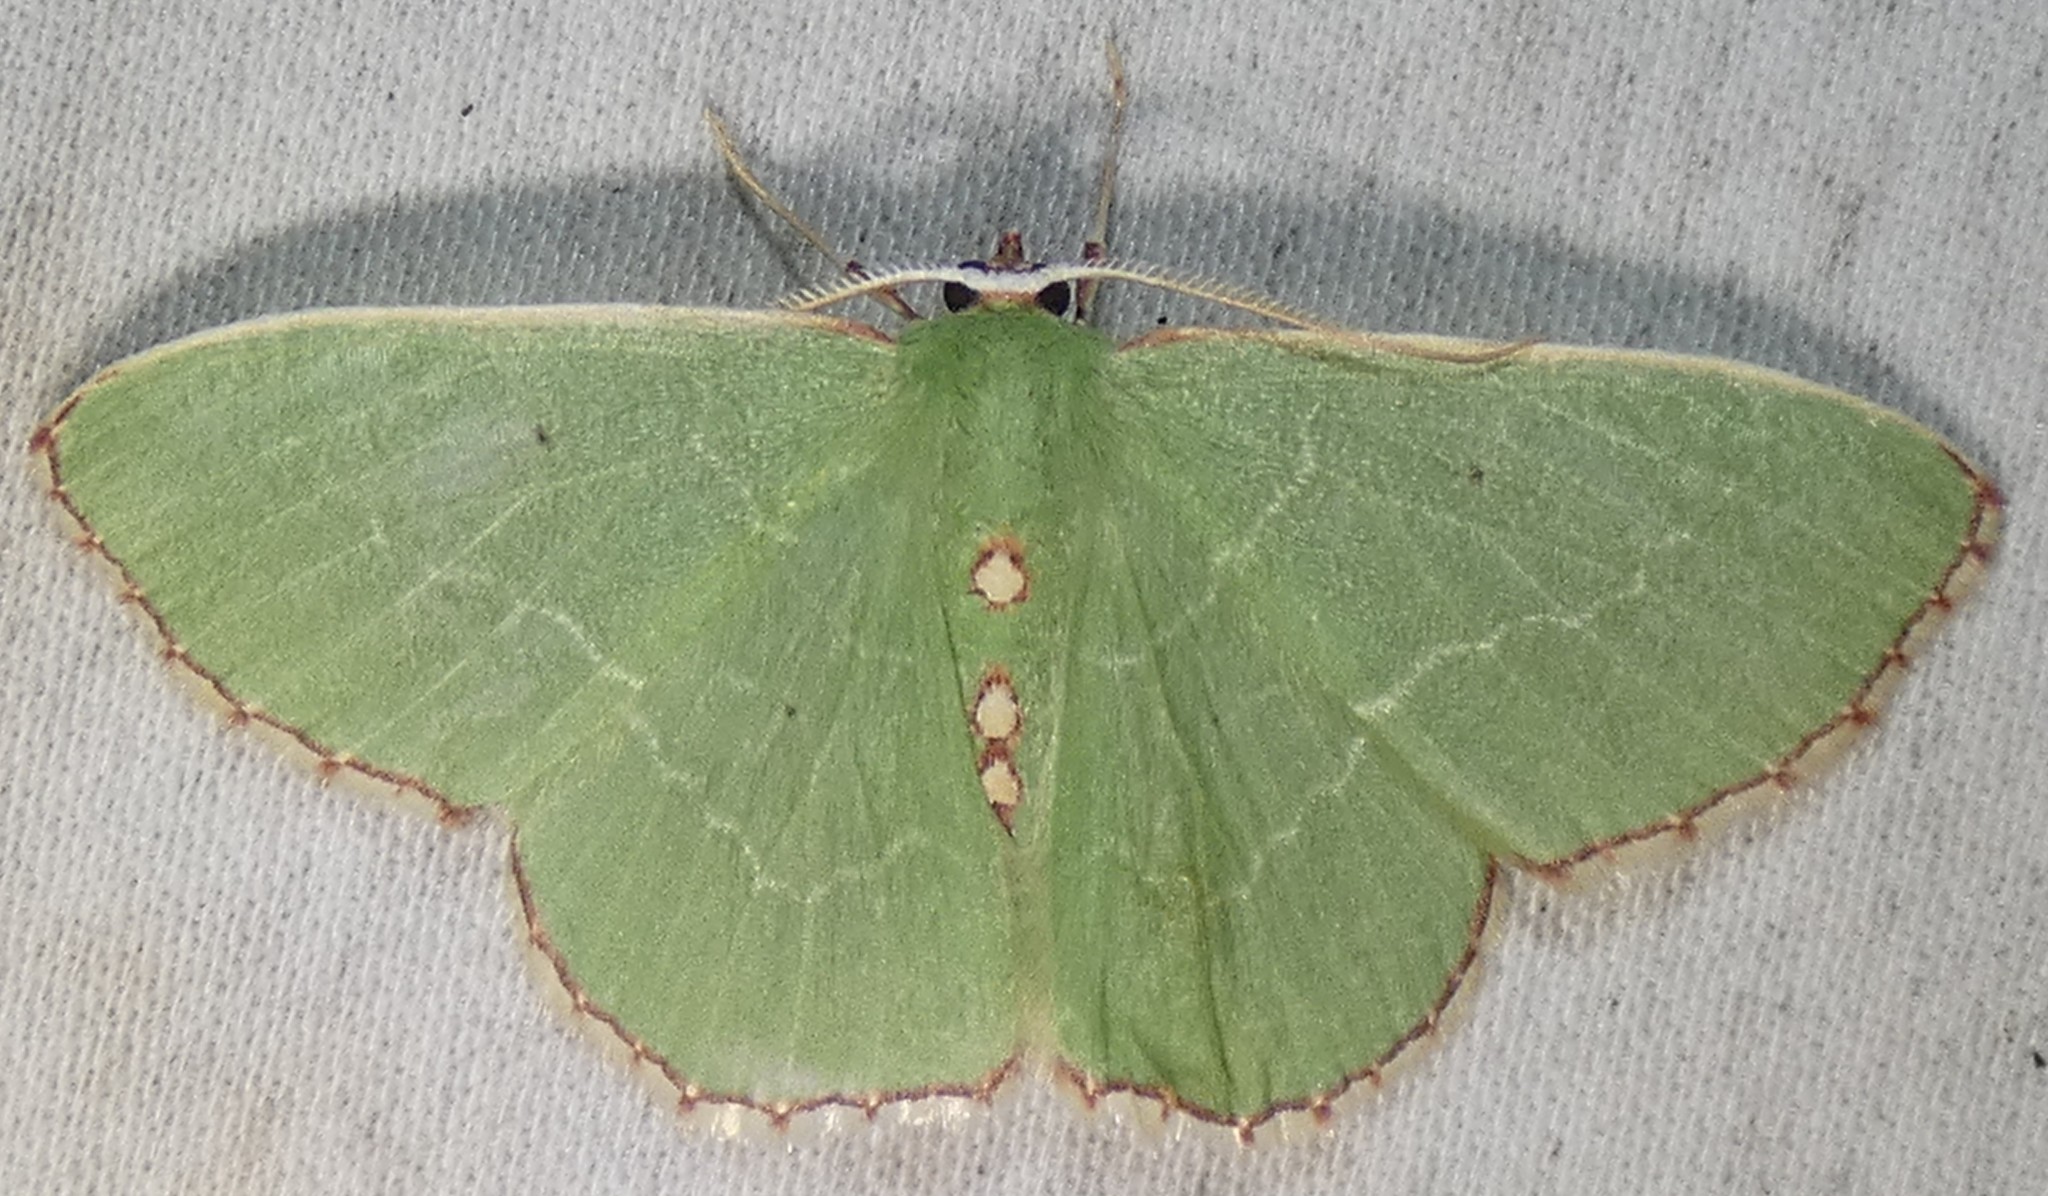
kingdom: Animalia
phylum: Arthropoda
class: Insecta
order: Lepidoptera
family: Geometridae
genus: Nemoria
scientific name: Nemoria lixaria
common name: Red-bordered emerald
